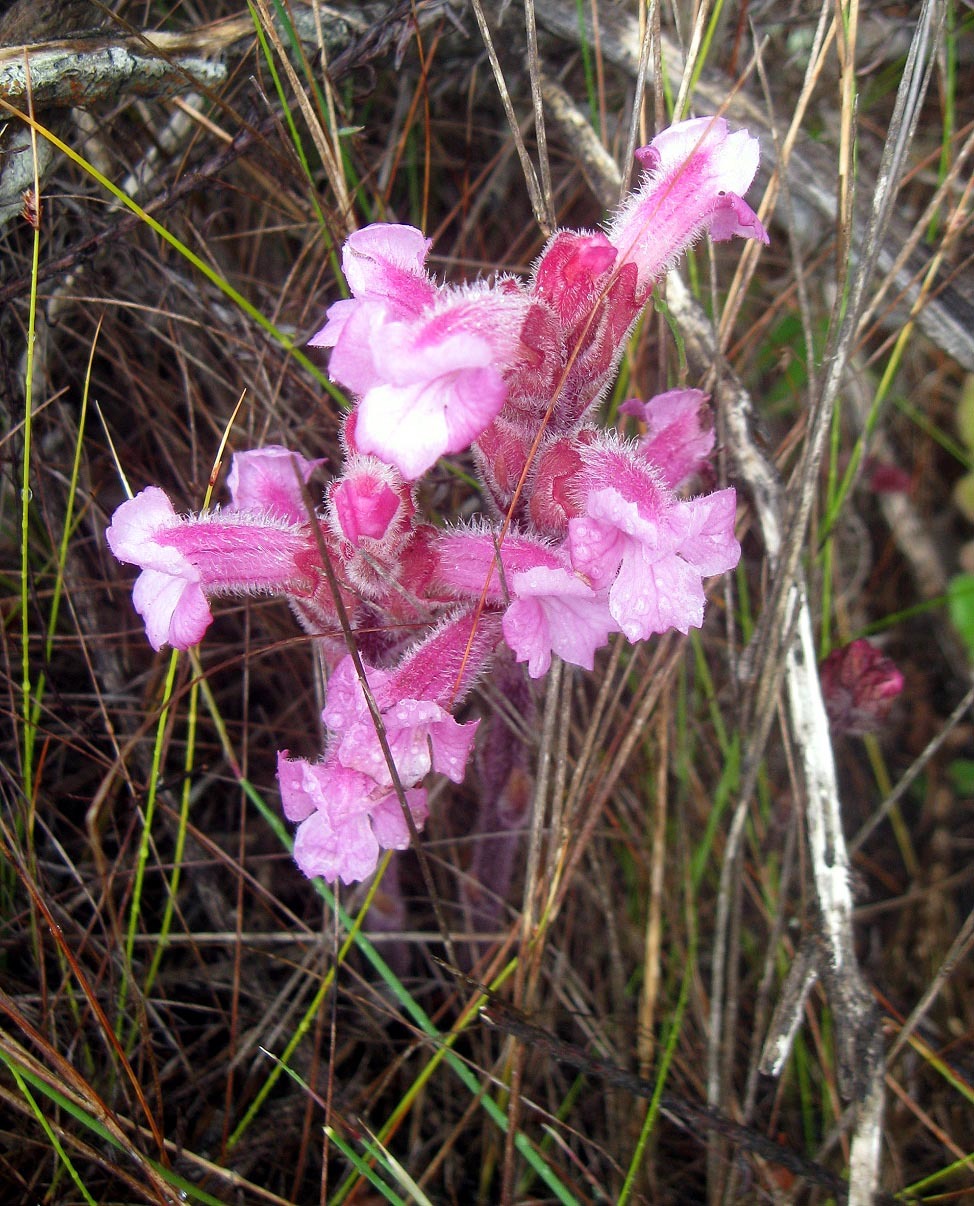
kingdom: Plantae
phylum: Tracheophyta
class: Magnoliopsida
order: Lamiales
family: Orobanchaceae
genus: Harveya
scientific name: Harveya pauciflora
